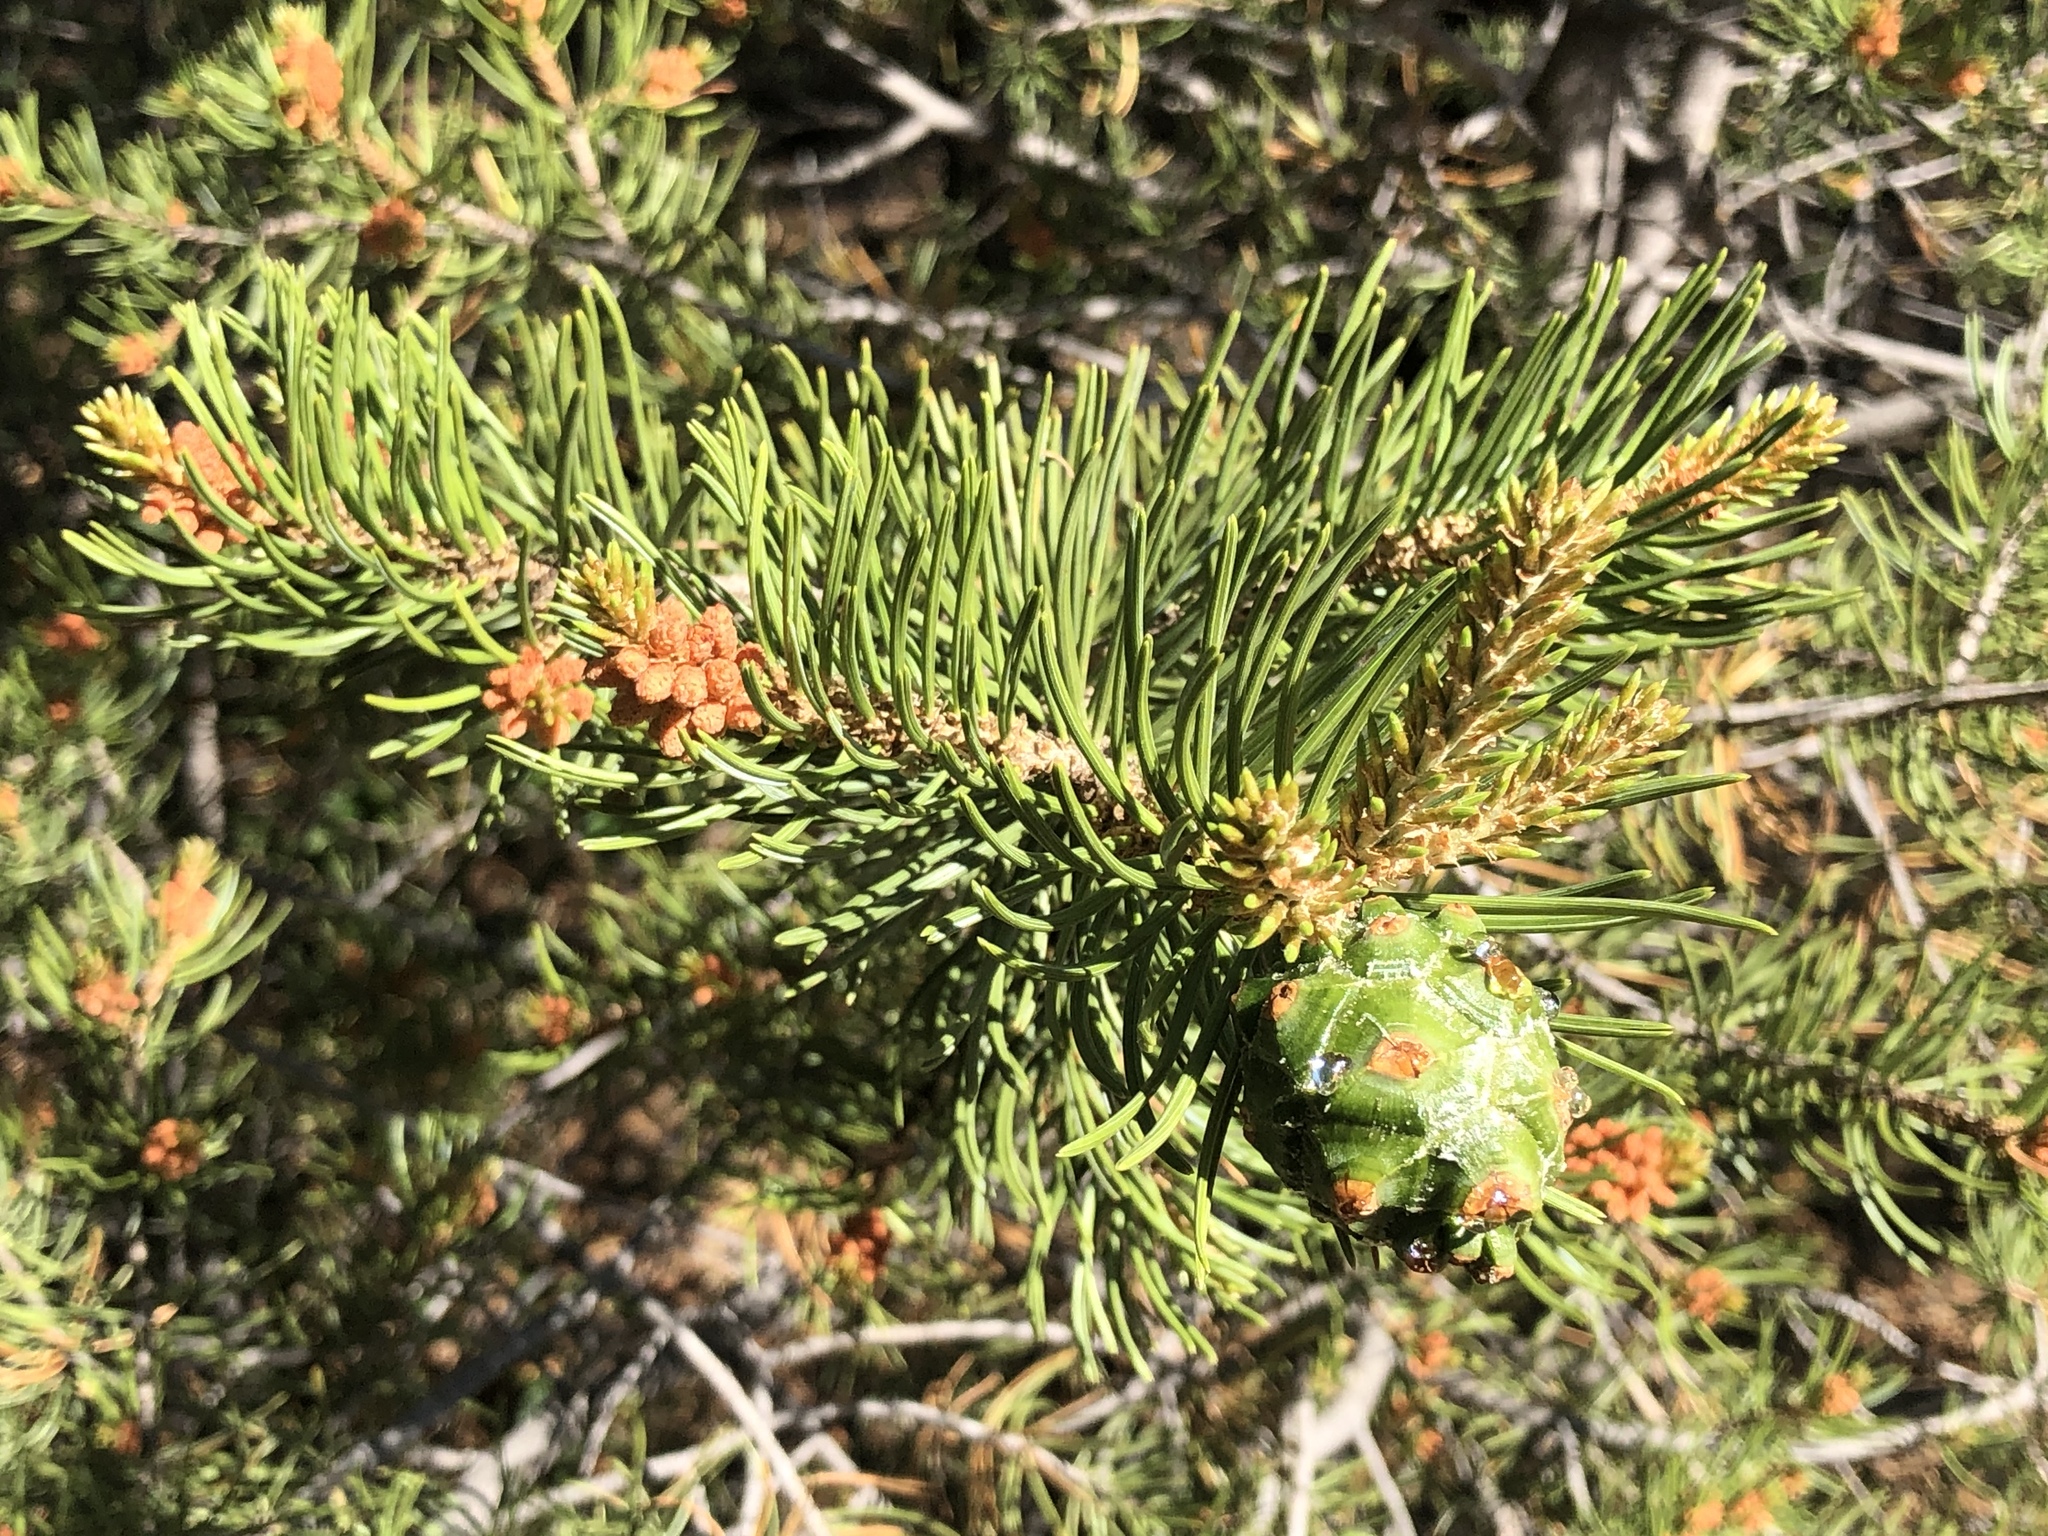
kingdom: Plantae
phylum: Tracheophyta
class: Pinopsida
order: Pinales
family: Pinaceae
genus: Pinus
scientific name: Pinus edulis
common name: Colorado pinyon
